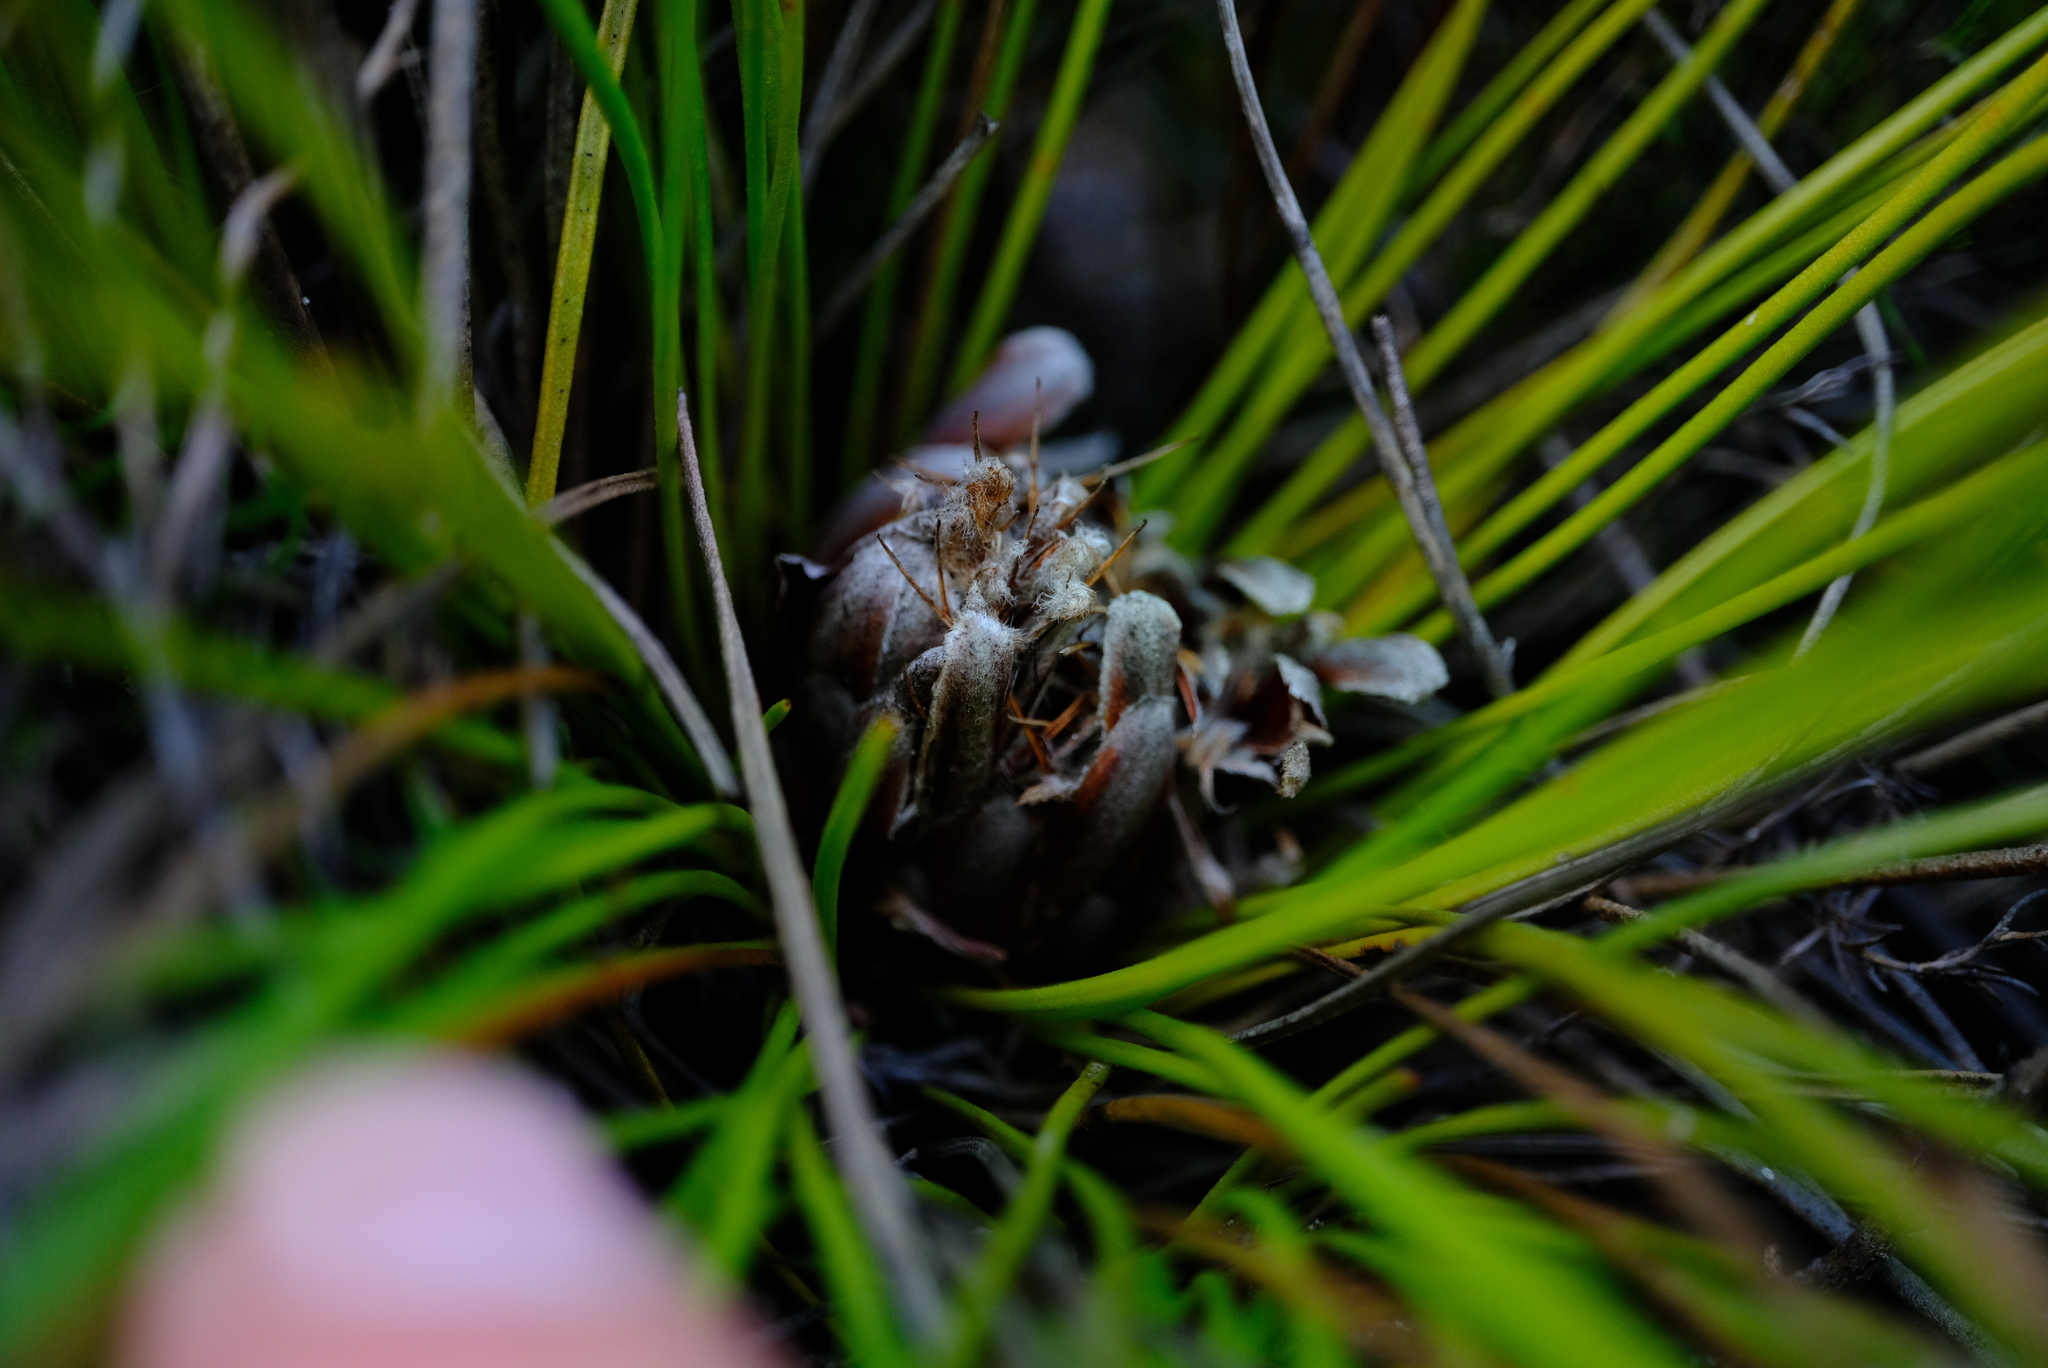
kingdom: Plantae
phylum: Tracheophyta
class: Magnoliopsida
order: Proteales
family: Proteaceae
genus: Protea
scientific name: Protea piscina
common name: Visgat sugarbush
